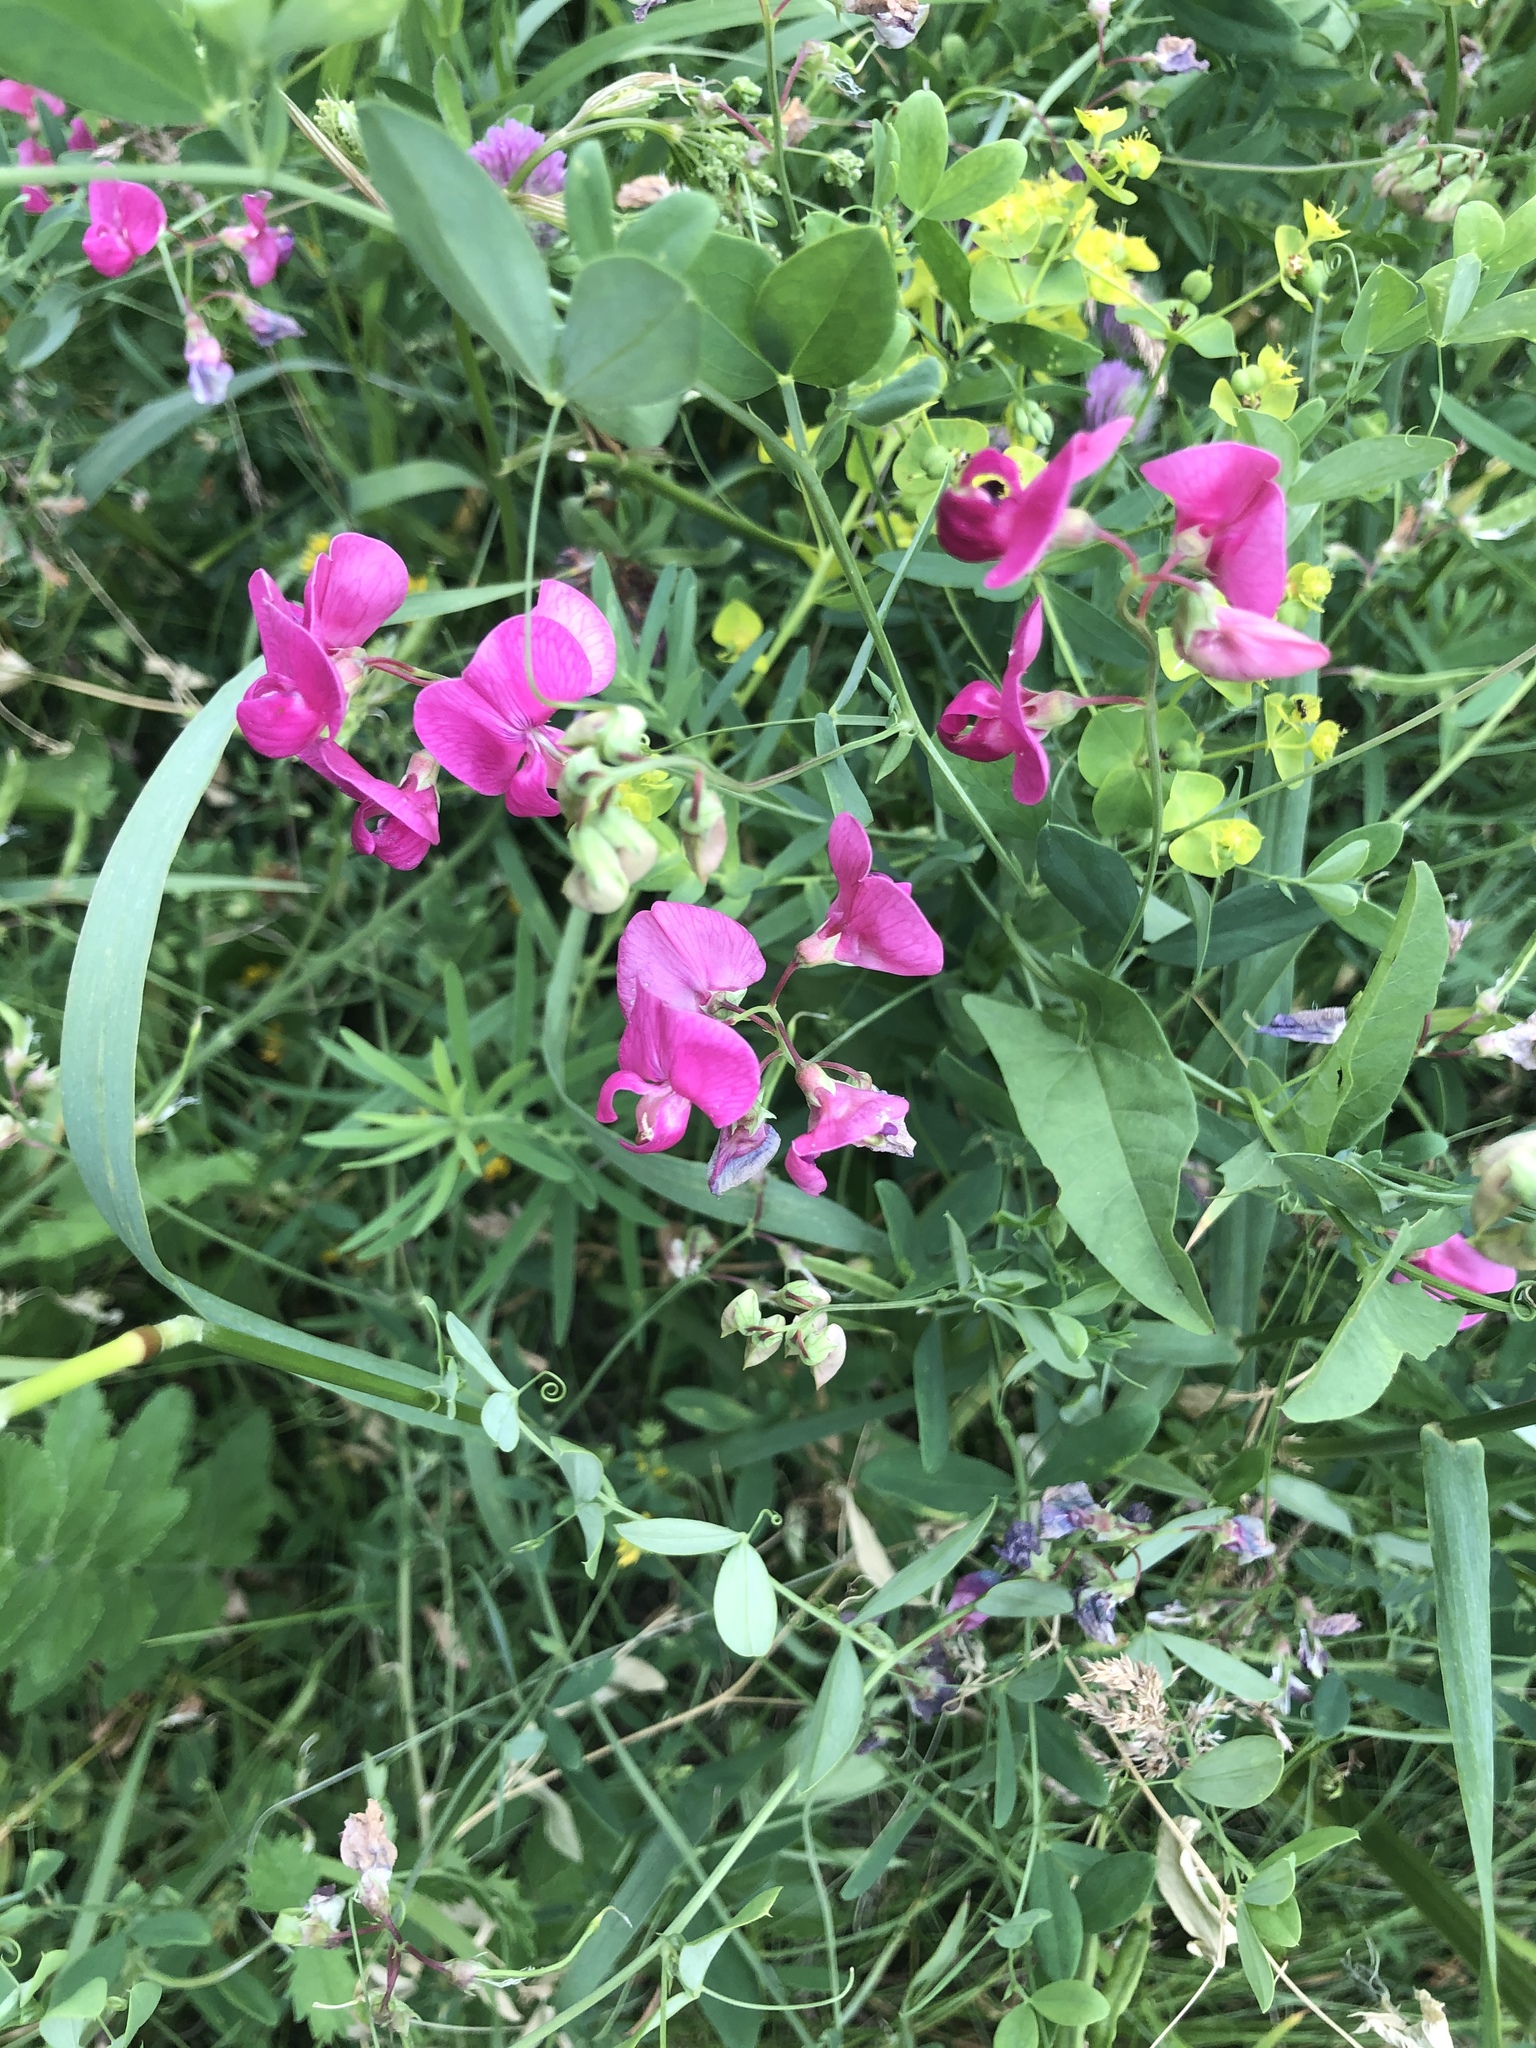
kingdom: Plantae
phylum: Tracheophyta
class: Magnoliopsida
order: Fabales
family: Fabaceae
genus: Lathyrus
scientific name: Lathyrus tuberosus
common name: Tuberous pea
